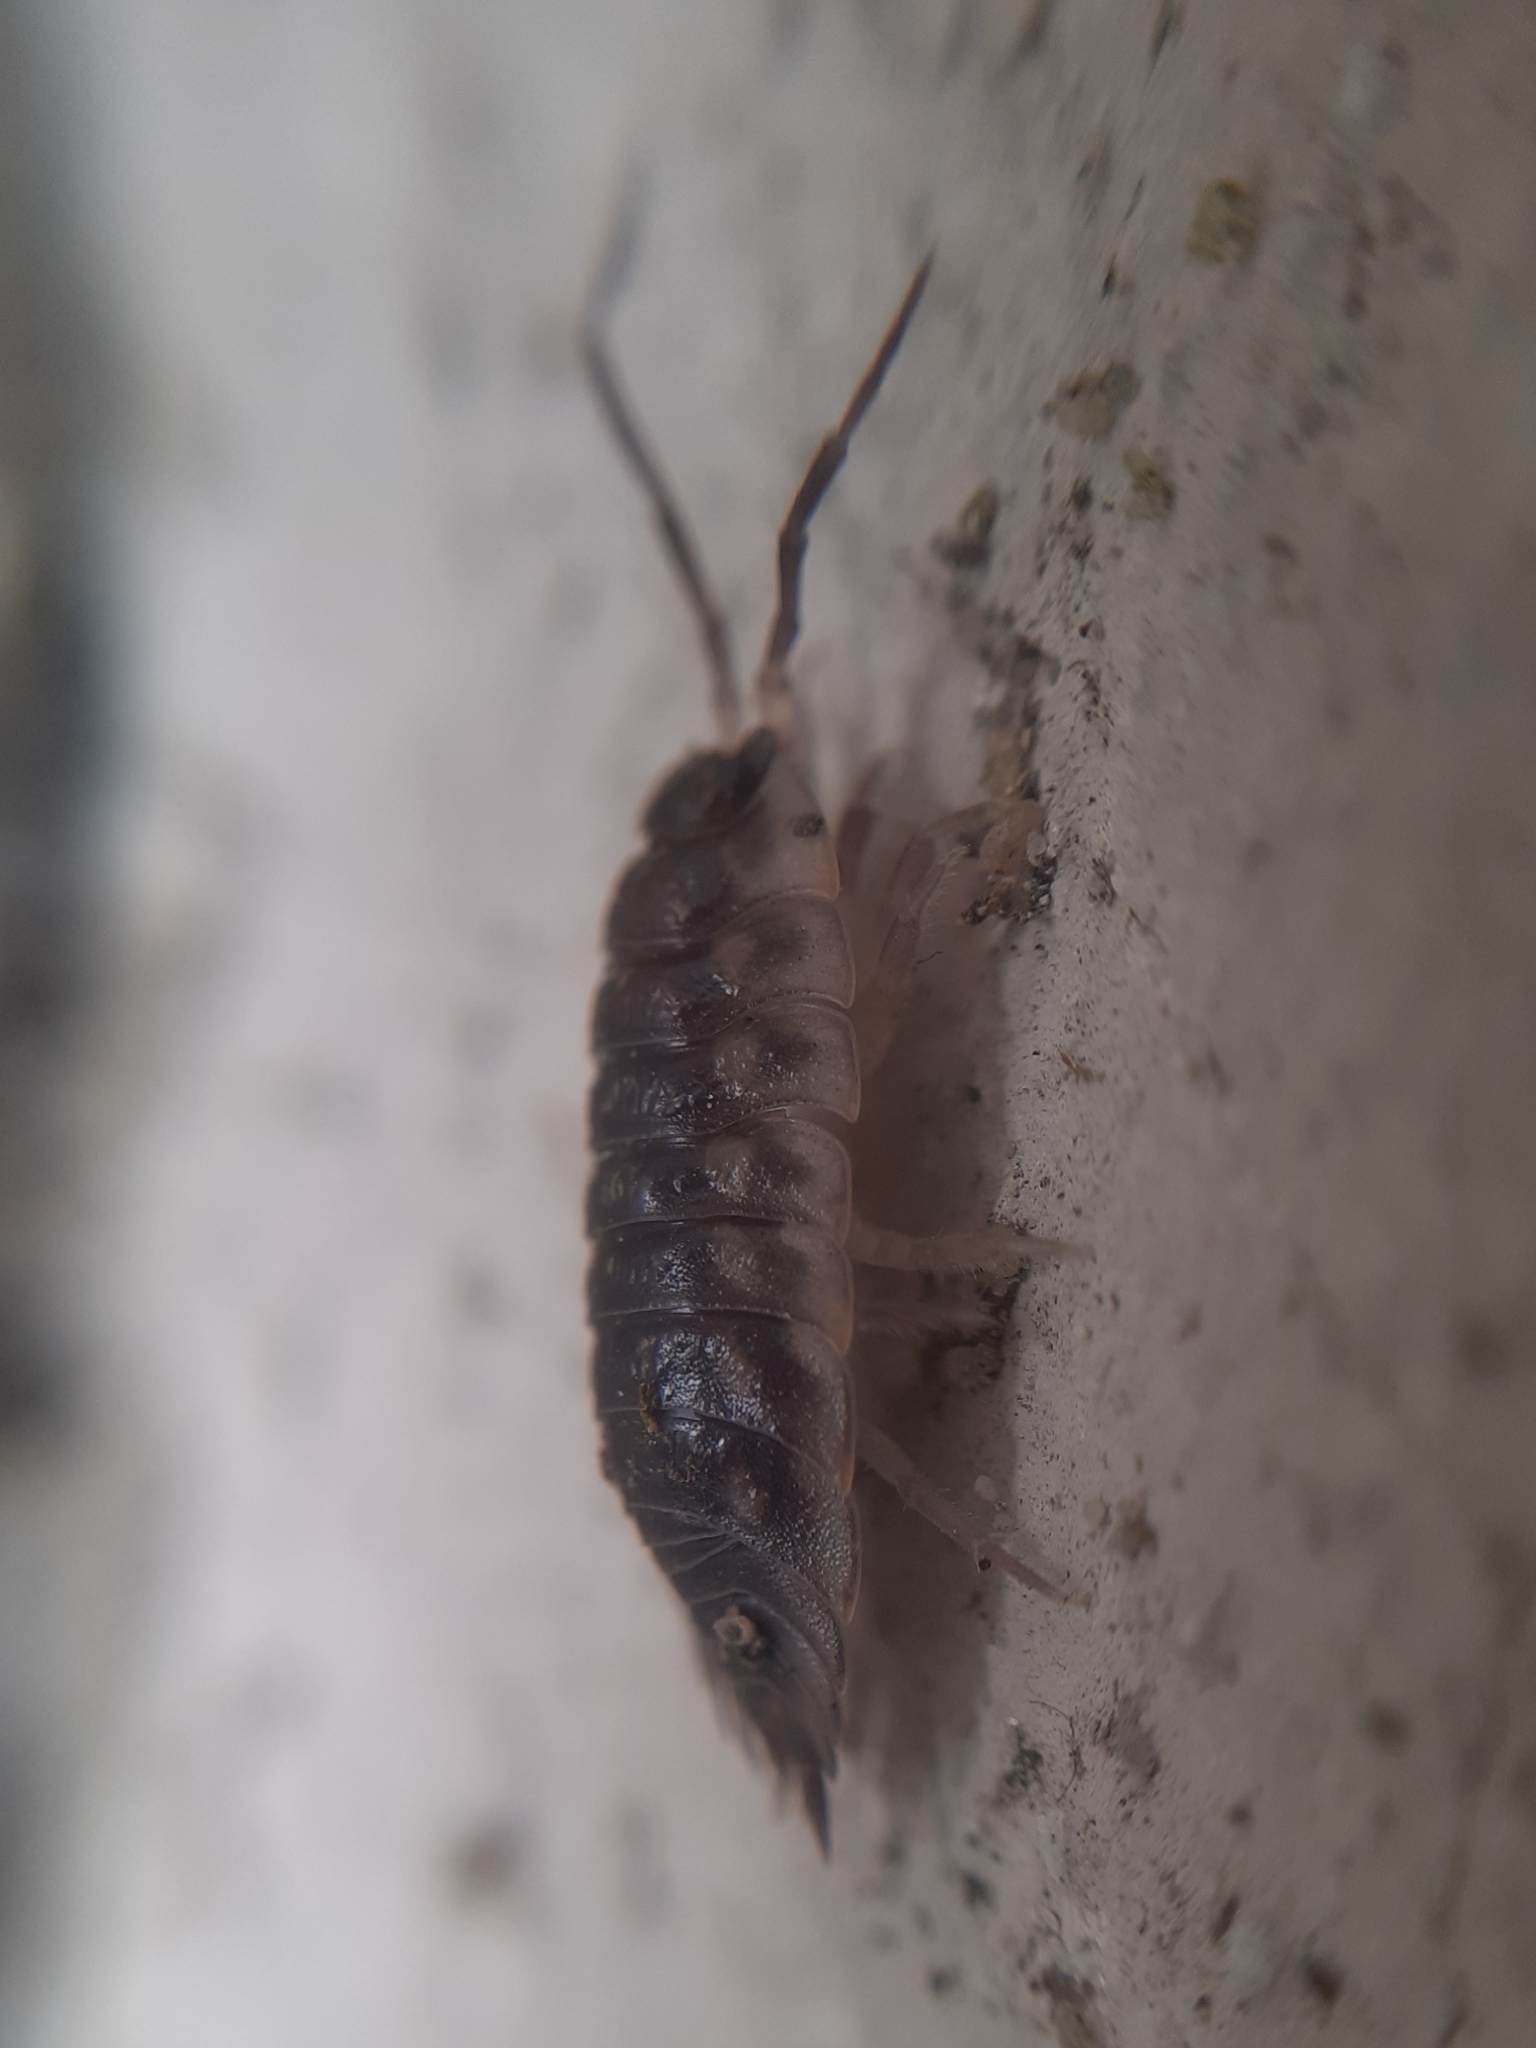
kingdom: Animalia
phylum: Arthropoda
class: Malacostraca
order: Isopoda
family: Oniscidae
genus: Oniscus
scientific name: Oniscus asellus
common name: Common shiny woodlouse
